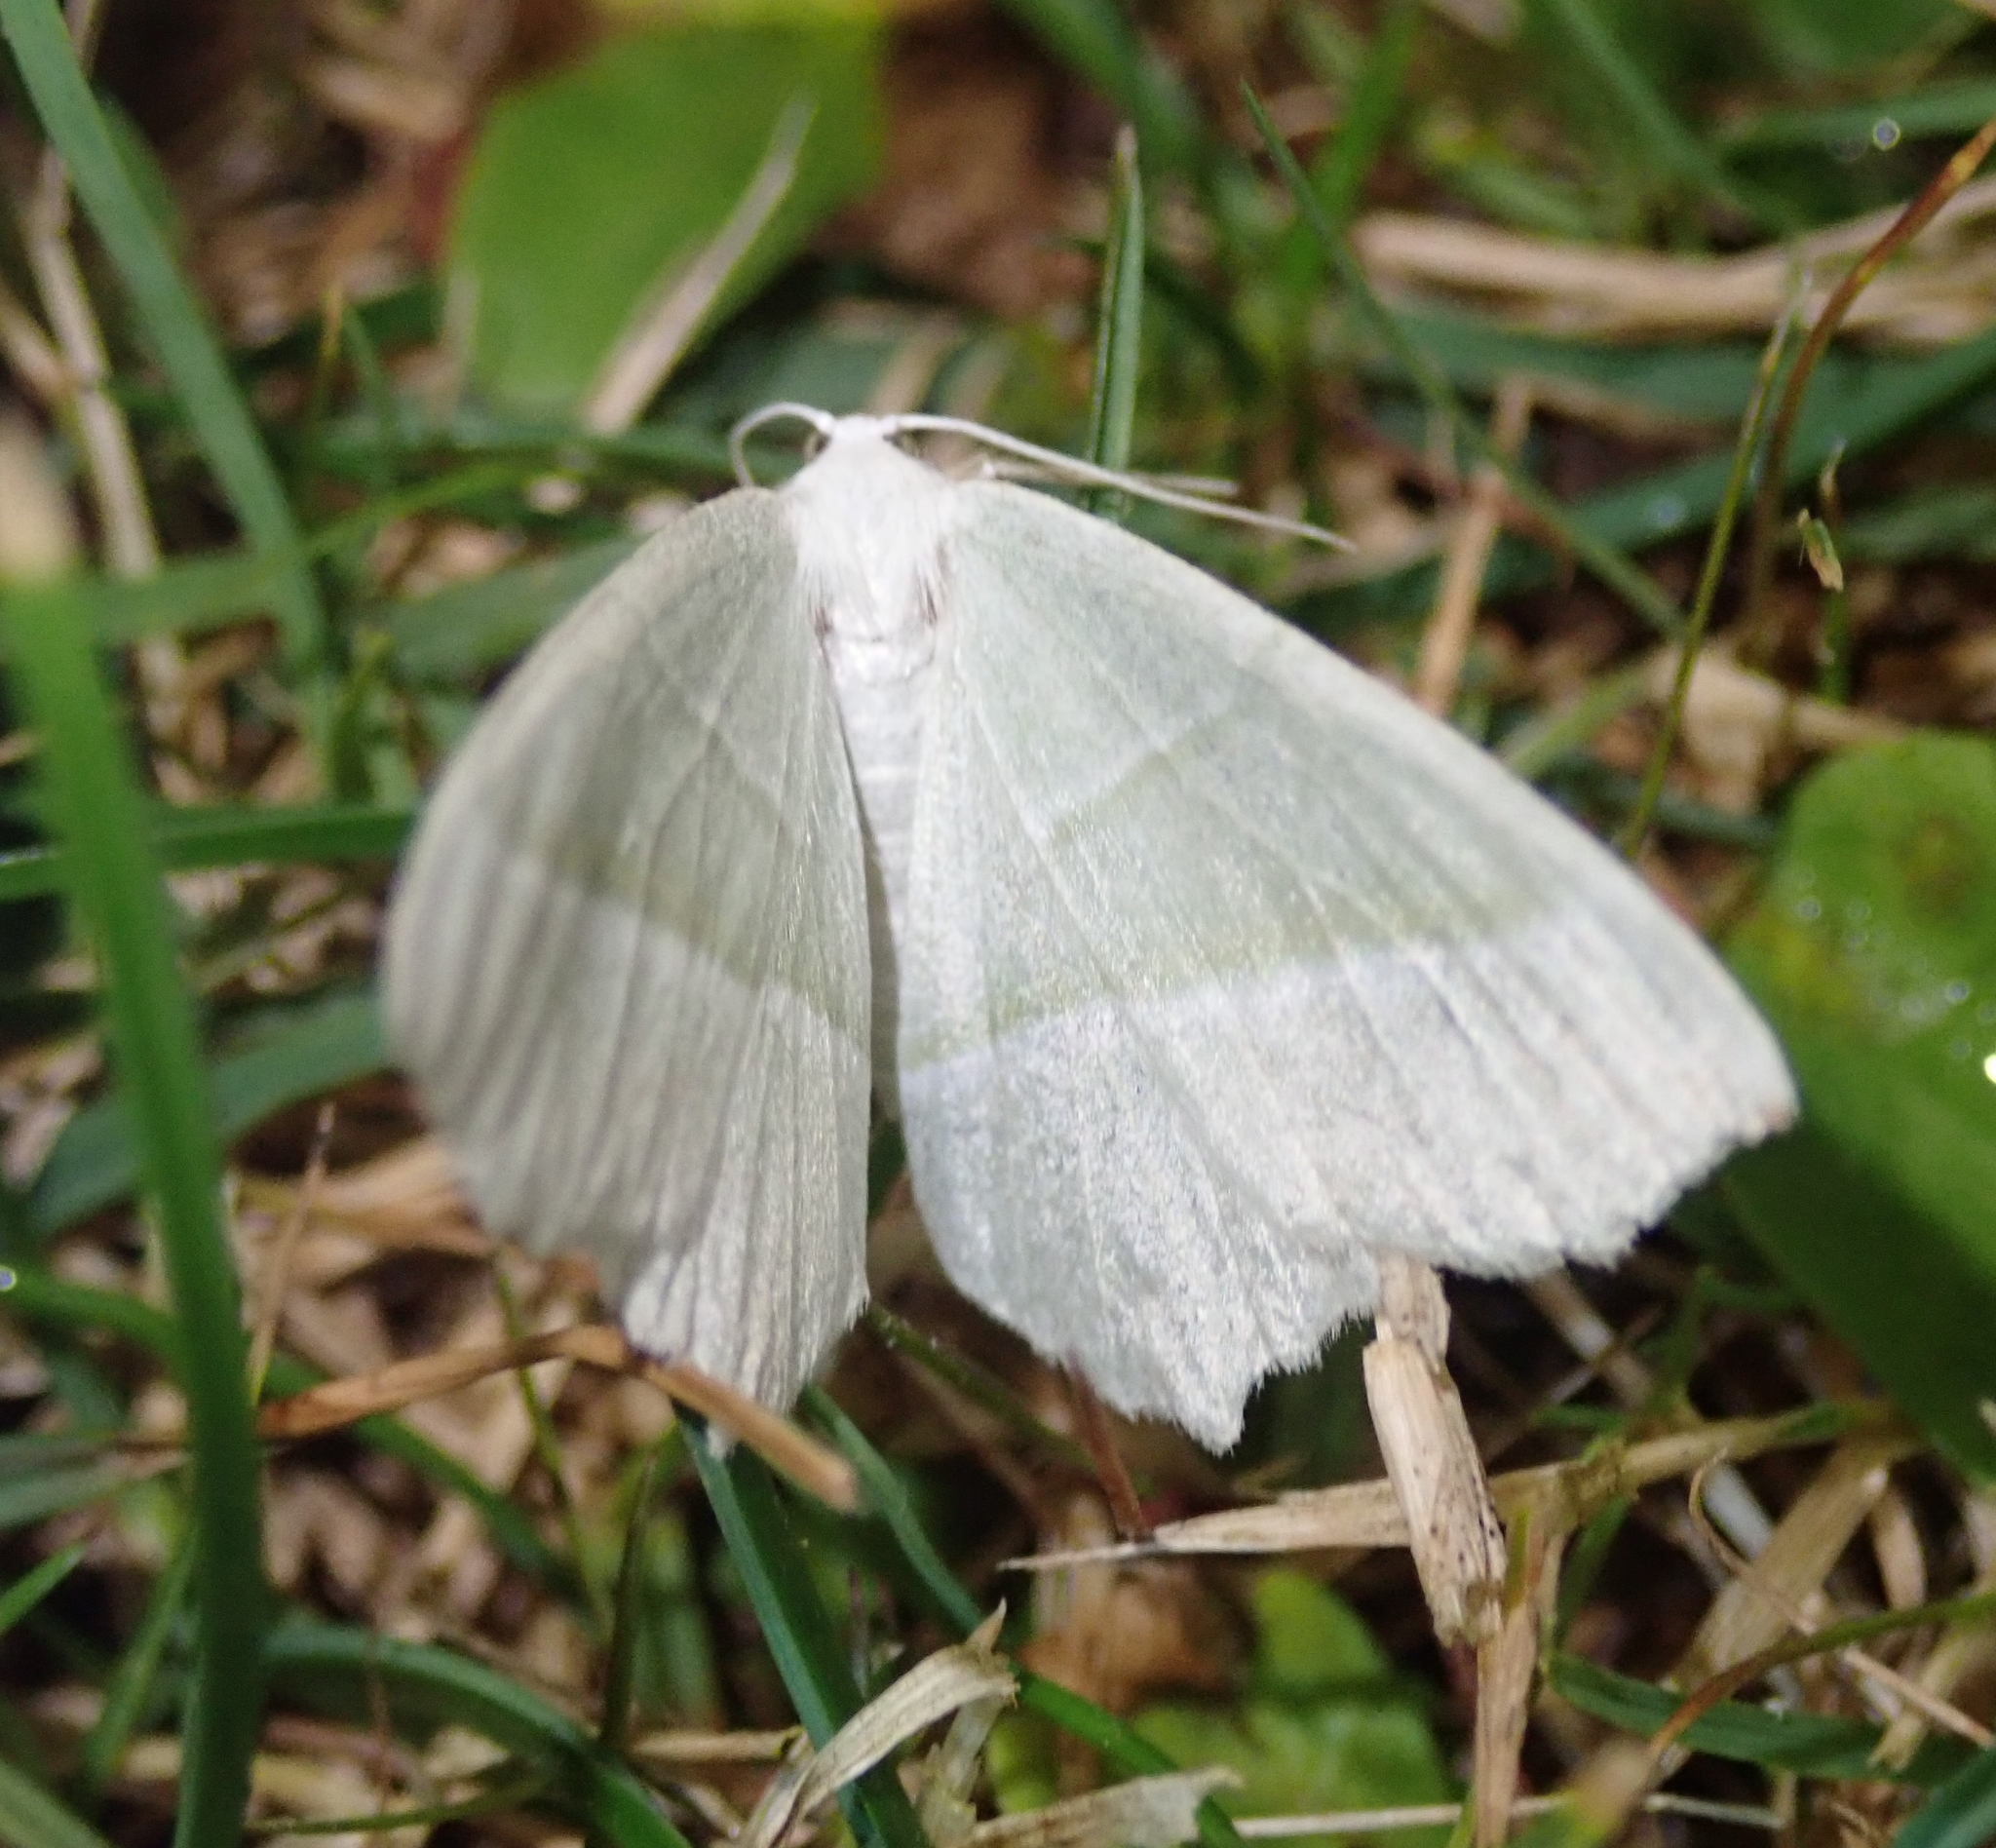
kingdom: Animalia
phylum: Arthropoda
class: Insecta
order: Lepidoptera
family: Geometridae
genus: Campaea
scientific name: Campaea margaritaria
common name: Light emerald
